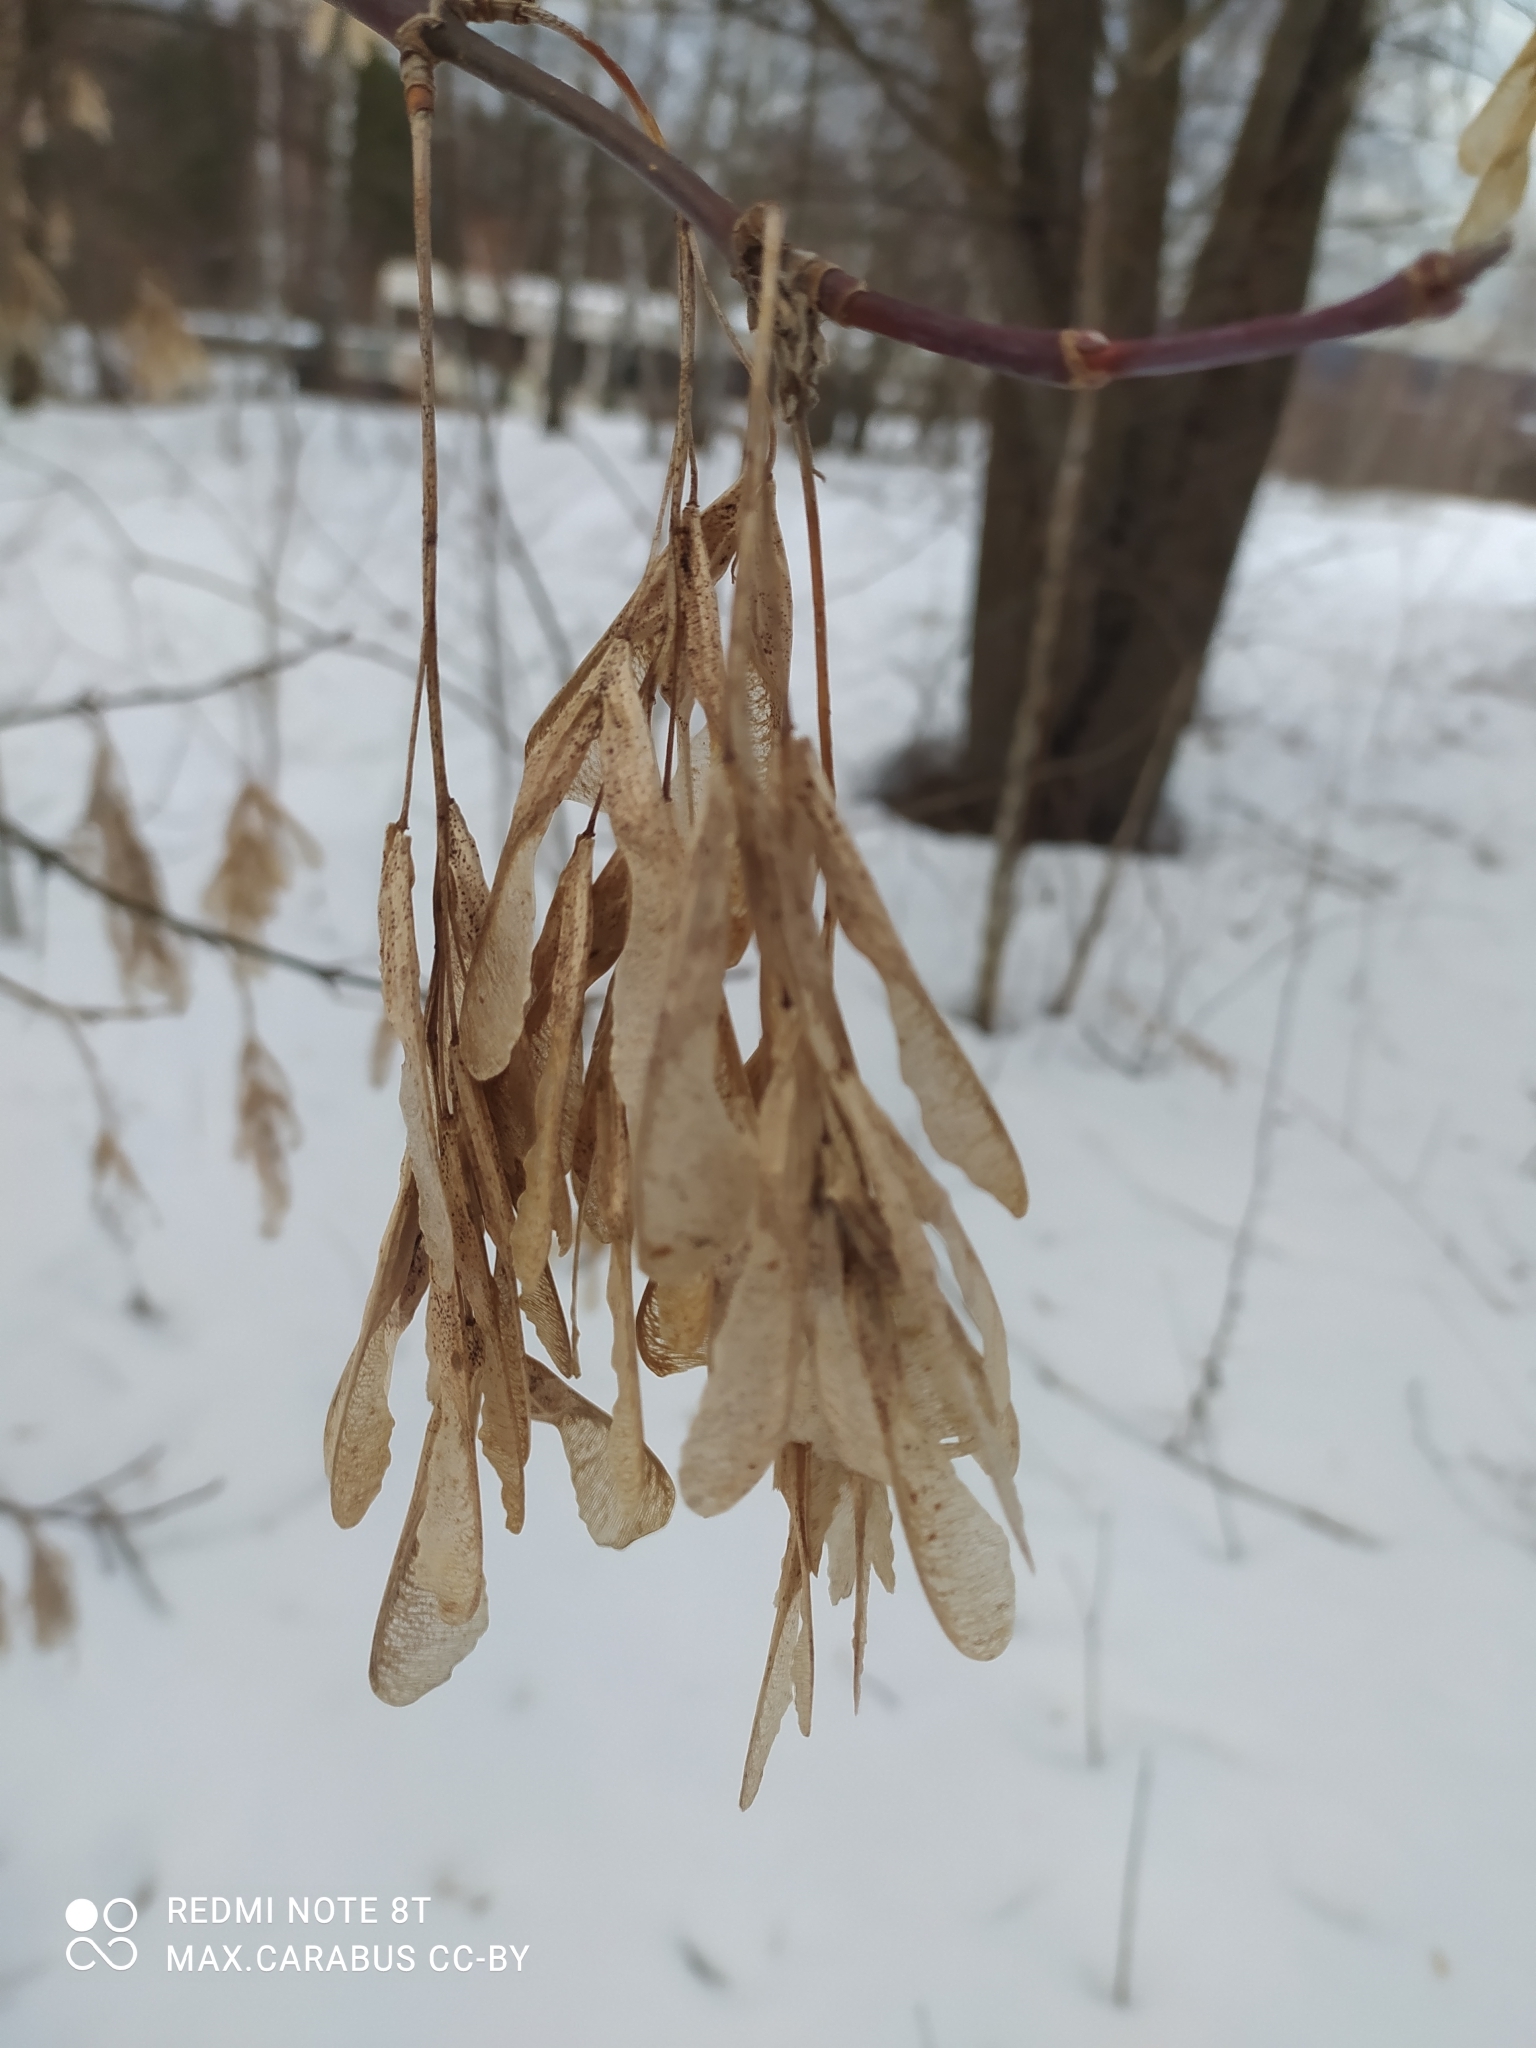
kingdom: Plantae
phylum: Tracheophyta
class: Magnoliopsida
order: Sapindales
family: Sapindaceae
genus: Acer
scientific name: Acer negundo
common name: Ashleaf maple
